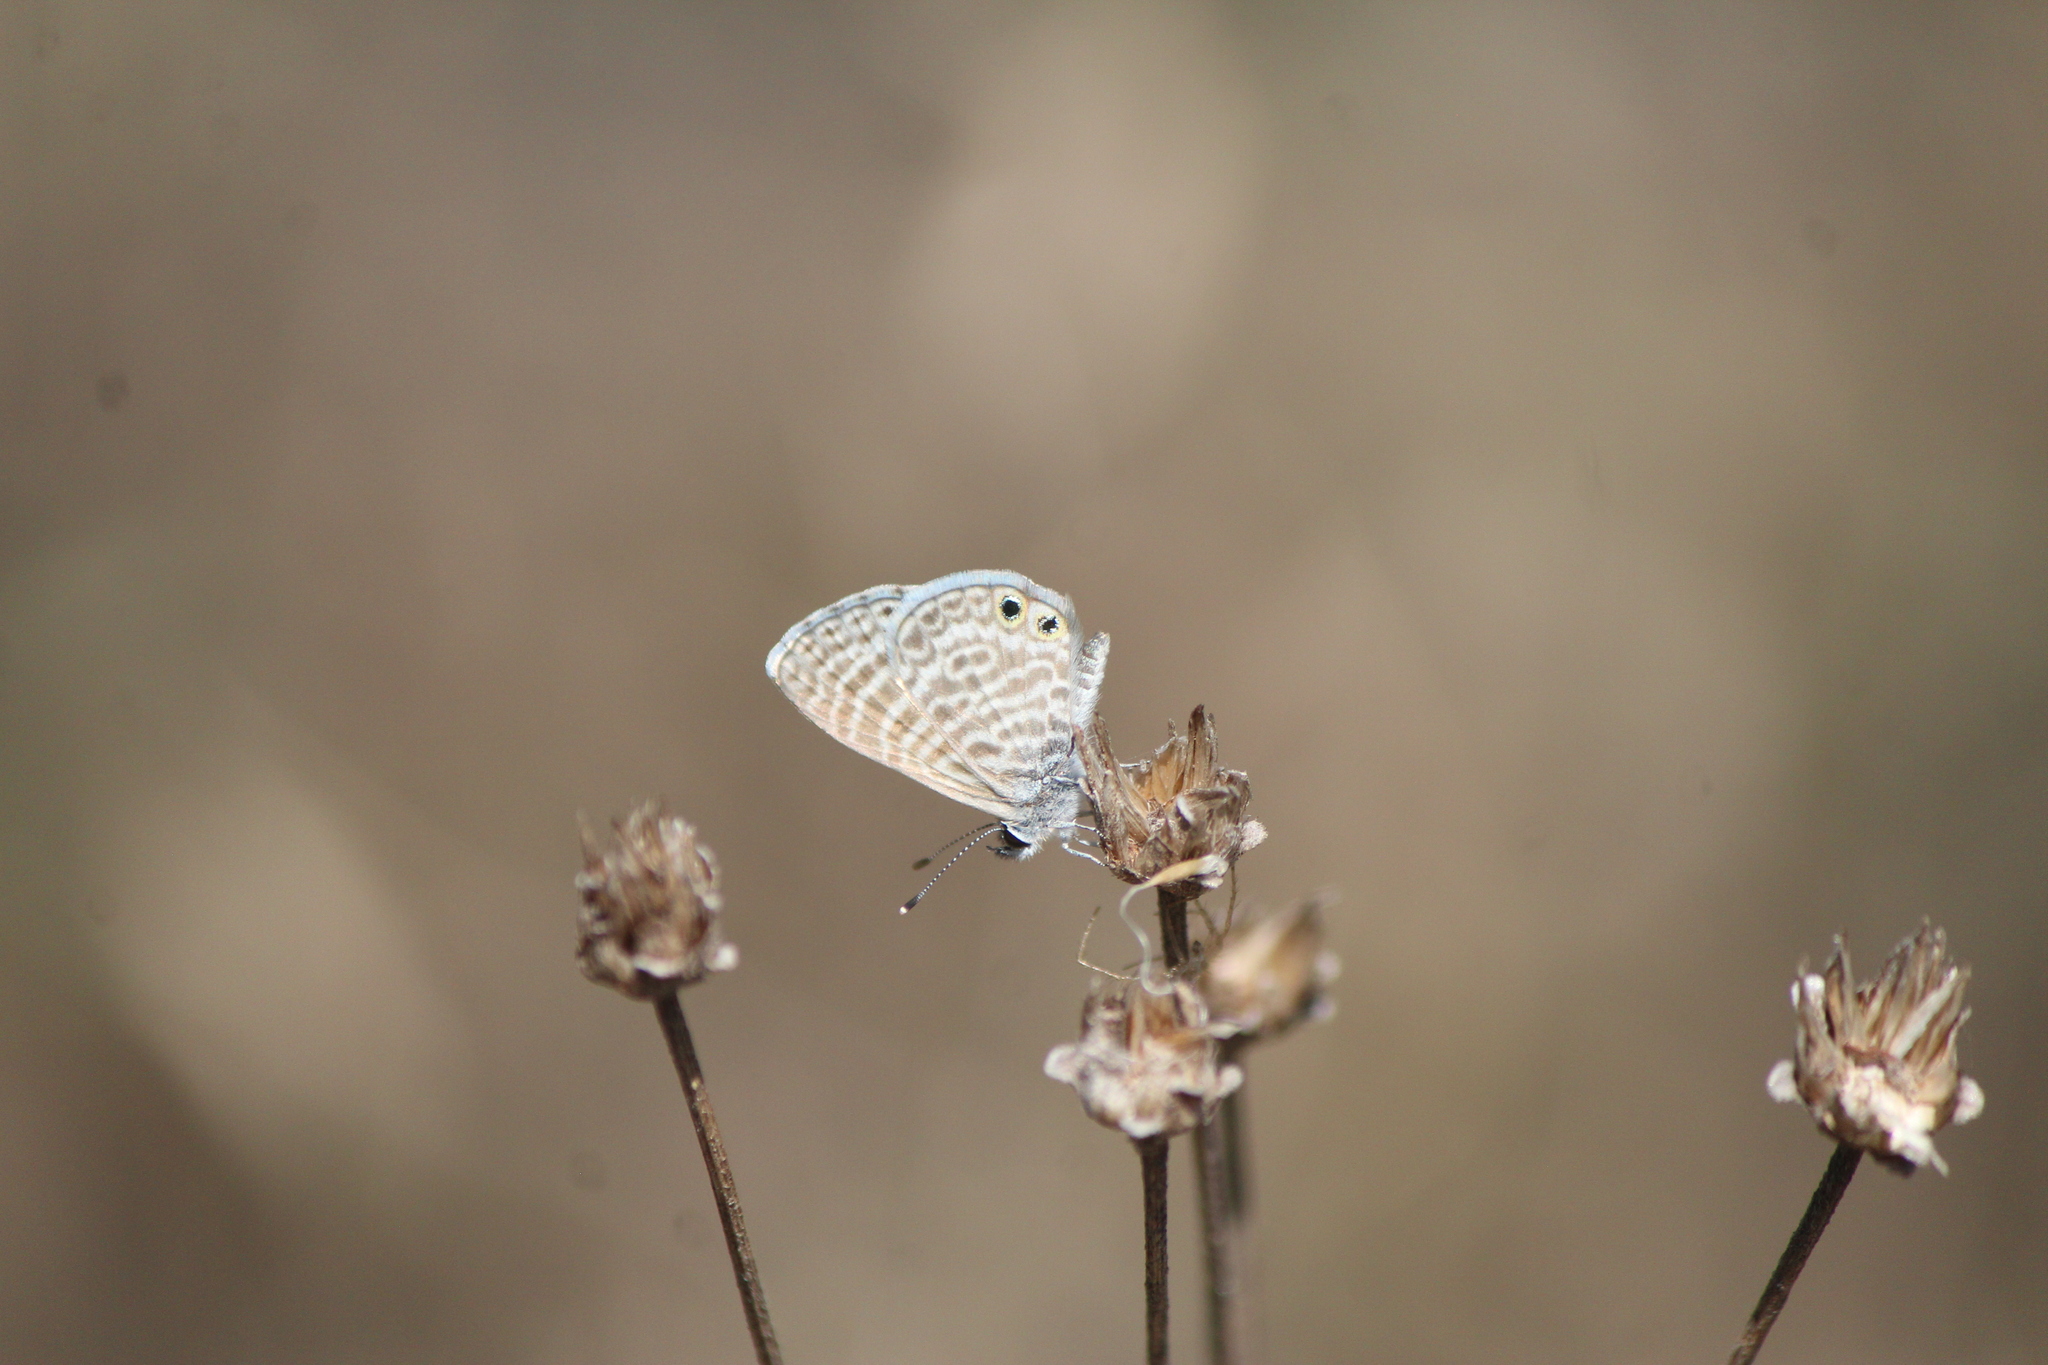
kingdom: Animalia
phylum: Arthropoda
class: Insecta
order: Lepidoptera
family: Lycaenidae
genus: Leptotes
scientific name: Leptotes marina
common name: Marine blue
